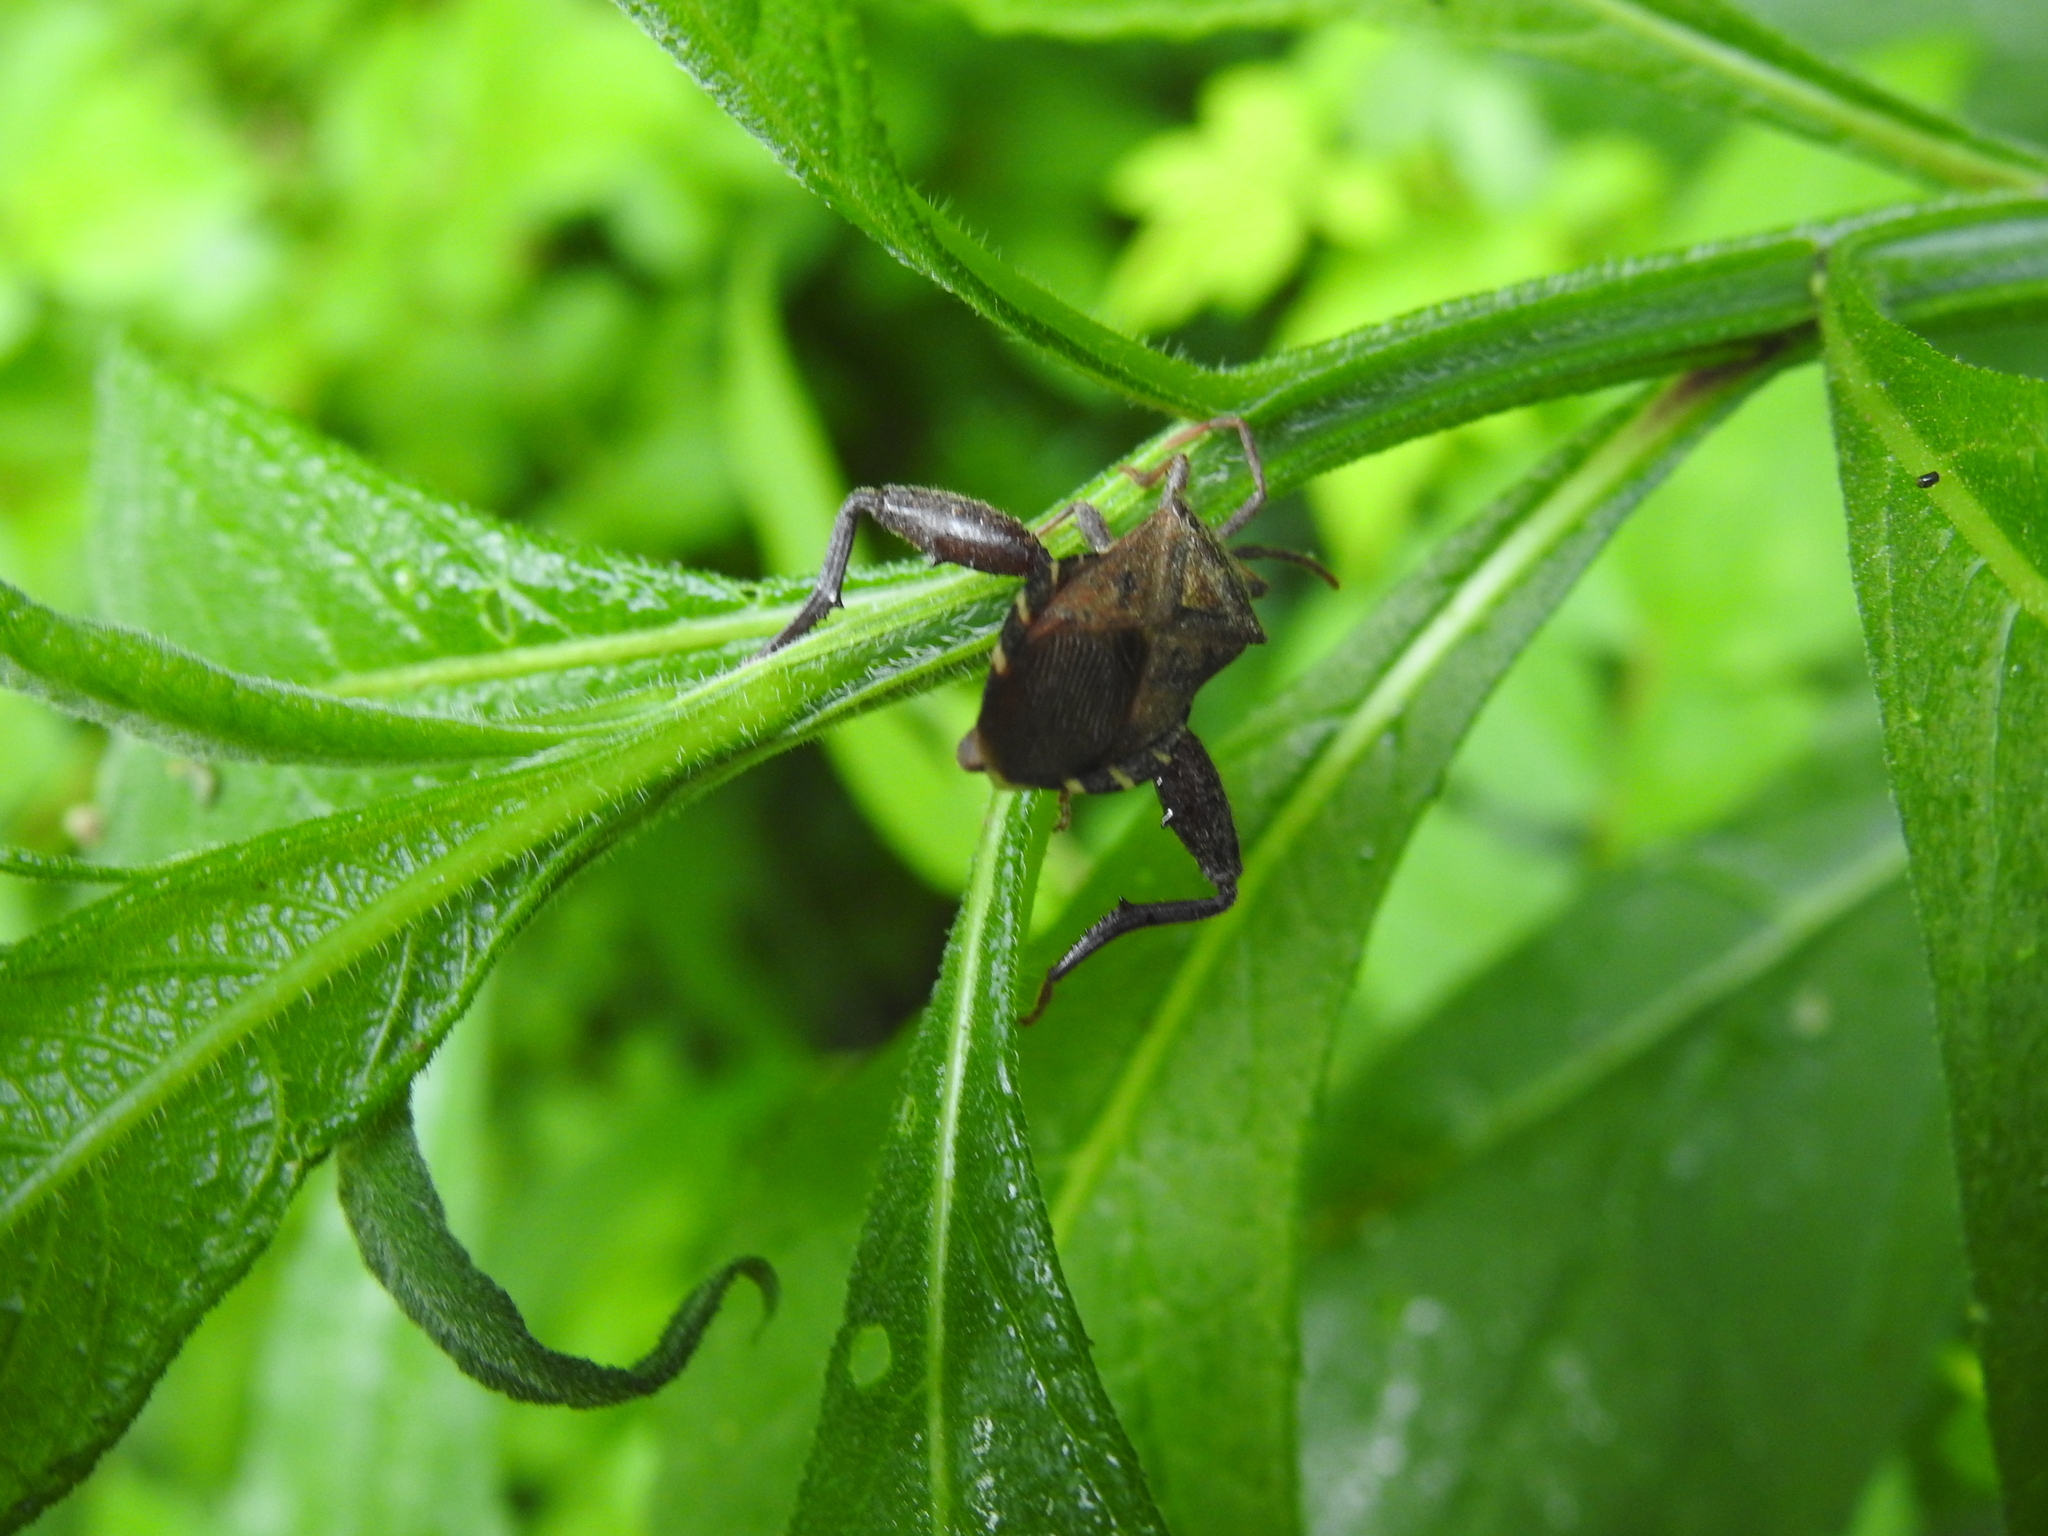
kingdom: Animalia
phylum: Arthropoda
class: Insecta
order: Hemiptera
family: Coreidae
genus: Piezogaster
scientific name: Piezogaster calcarator
